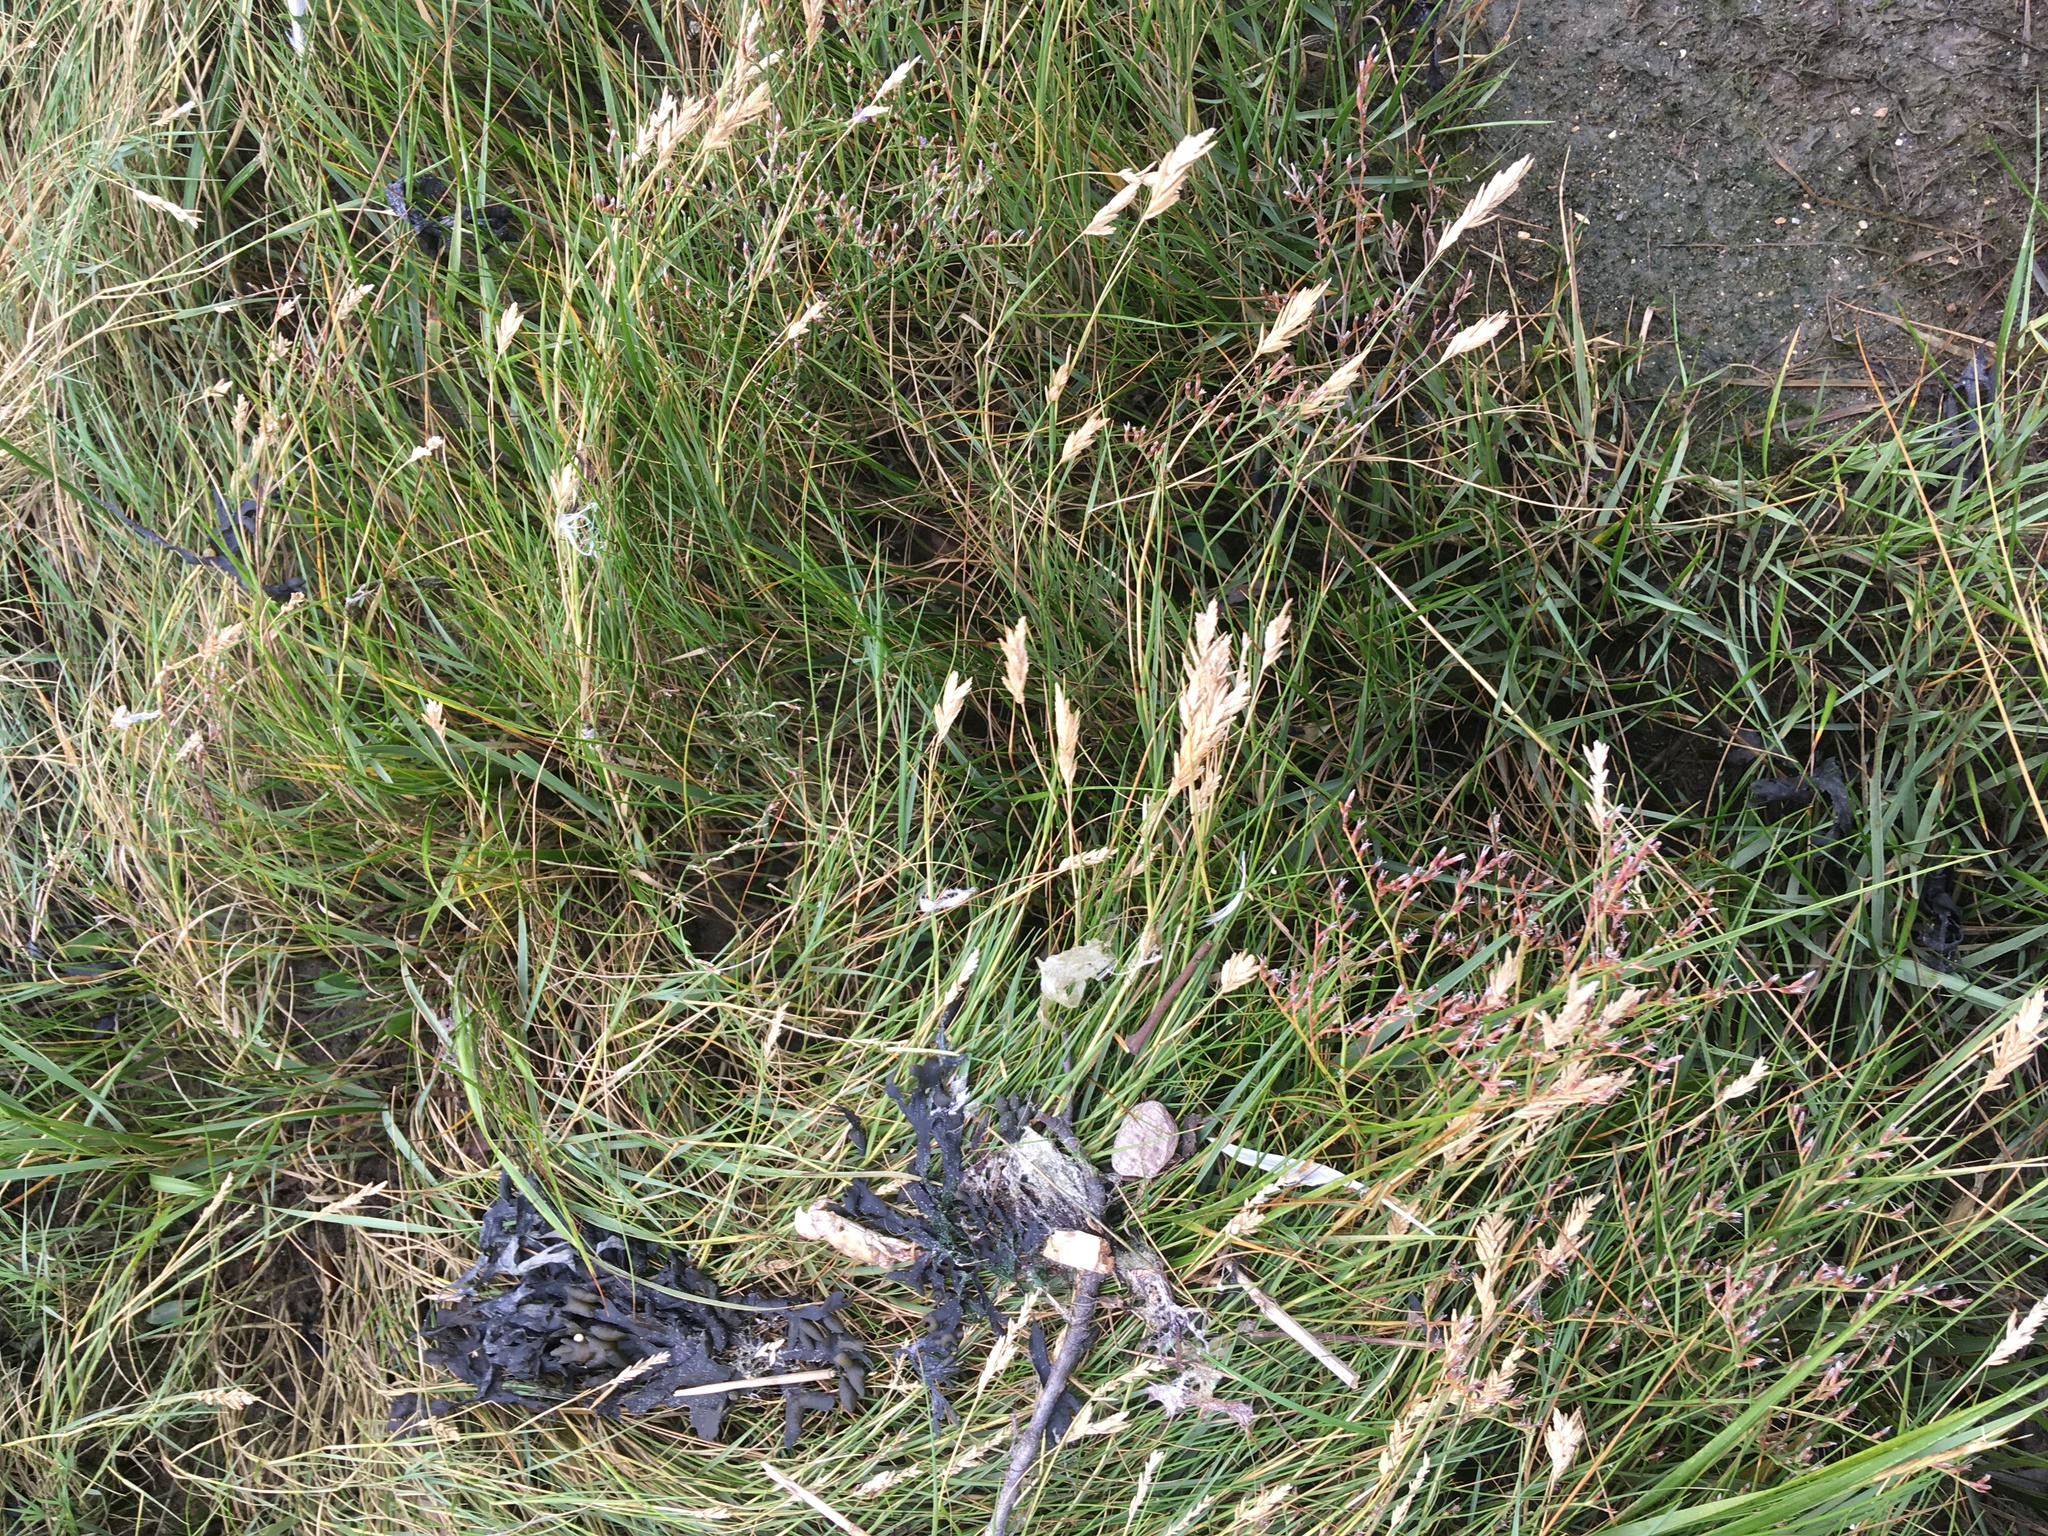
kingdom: Plantae
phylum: Tracheophyta
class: Liliopsida
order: Poales
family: Poaceae
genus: Sporobolus
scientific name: Sporobolus pumilus
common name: Highwater grass
